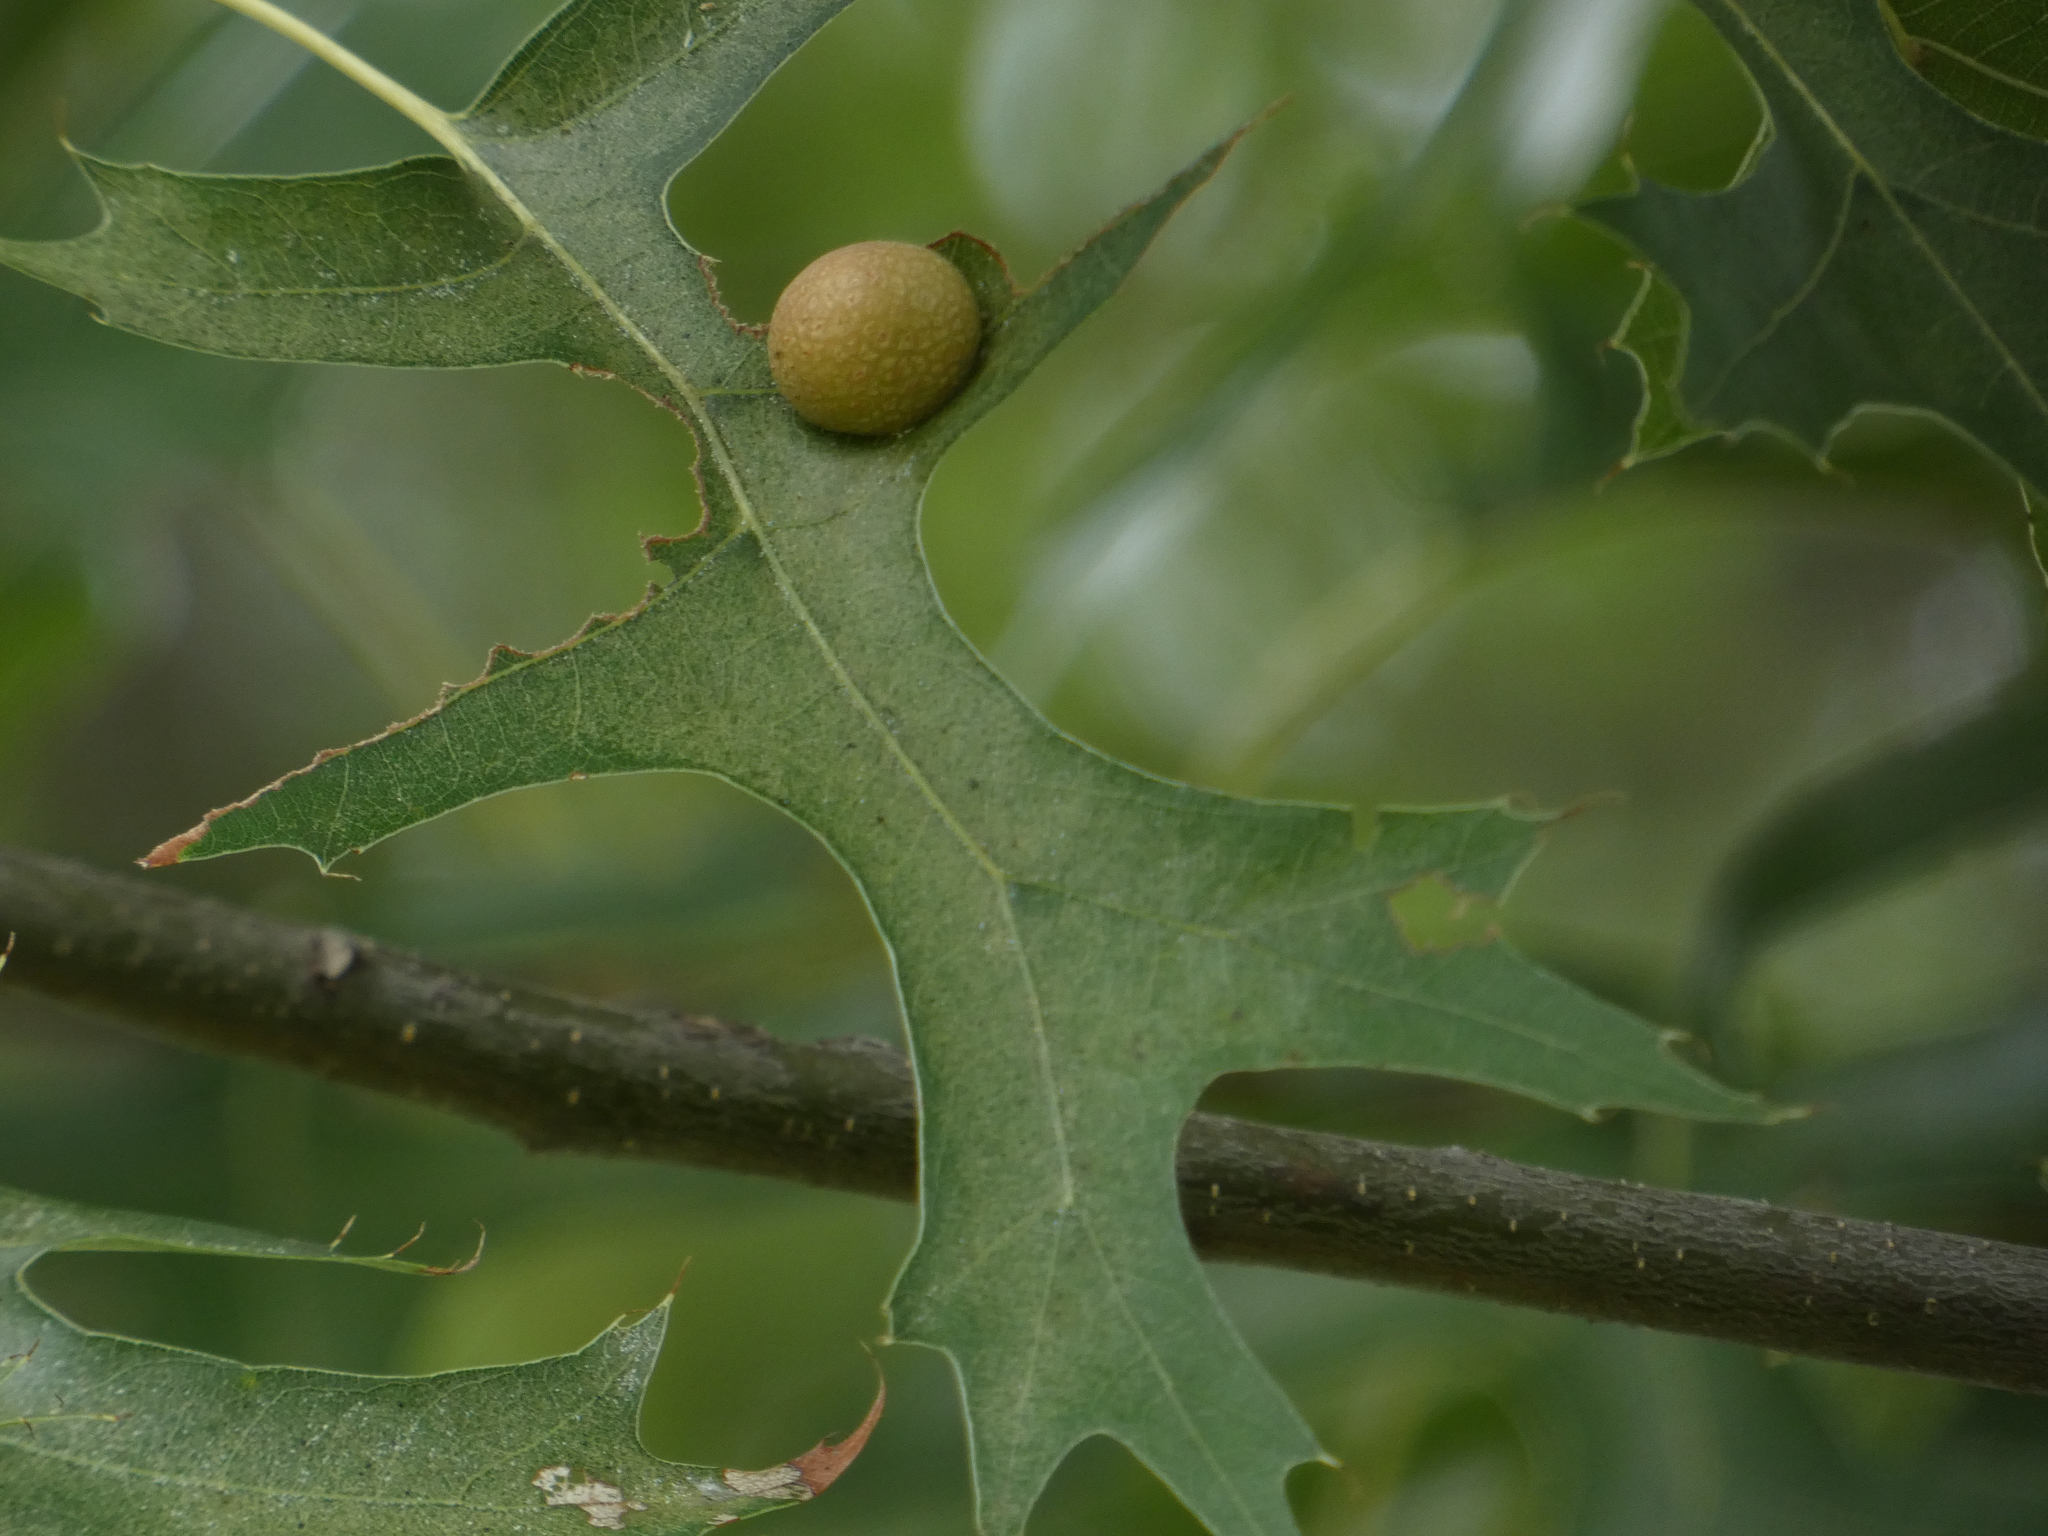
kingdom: Animalia
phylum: Arthropoda
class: Insecta
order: Diptera
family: Cecidomyiidae
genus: Polystepha
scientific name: Polystepha pilulae
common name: Oak leaf gall midge
